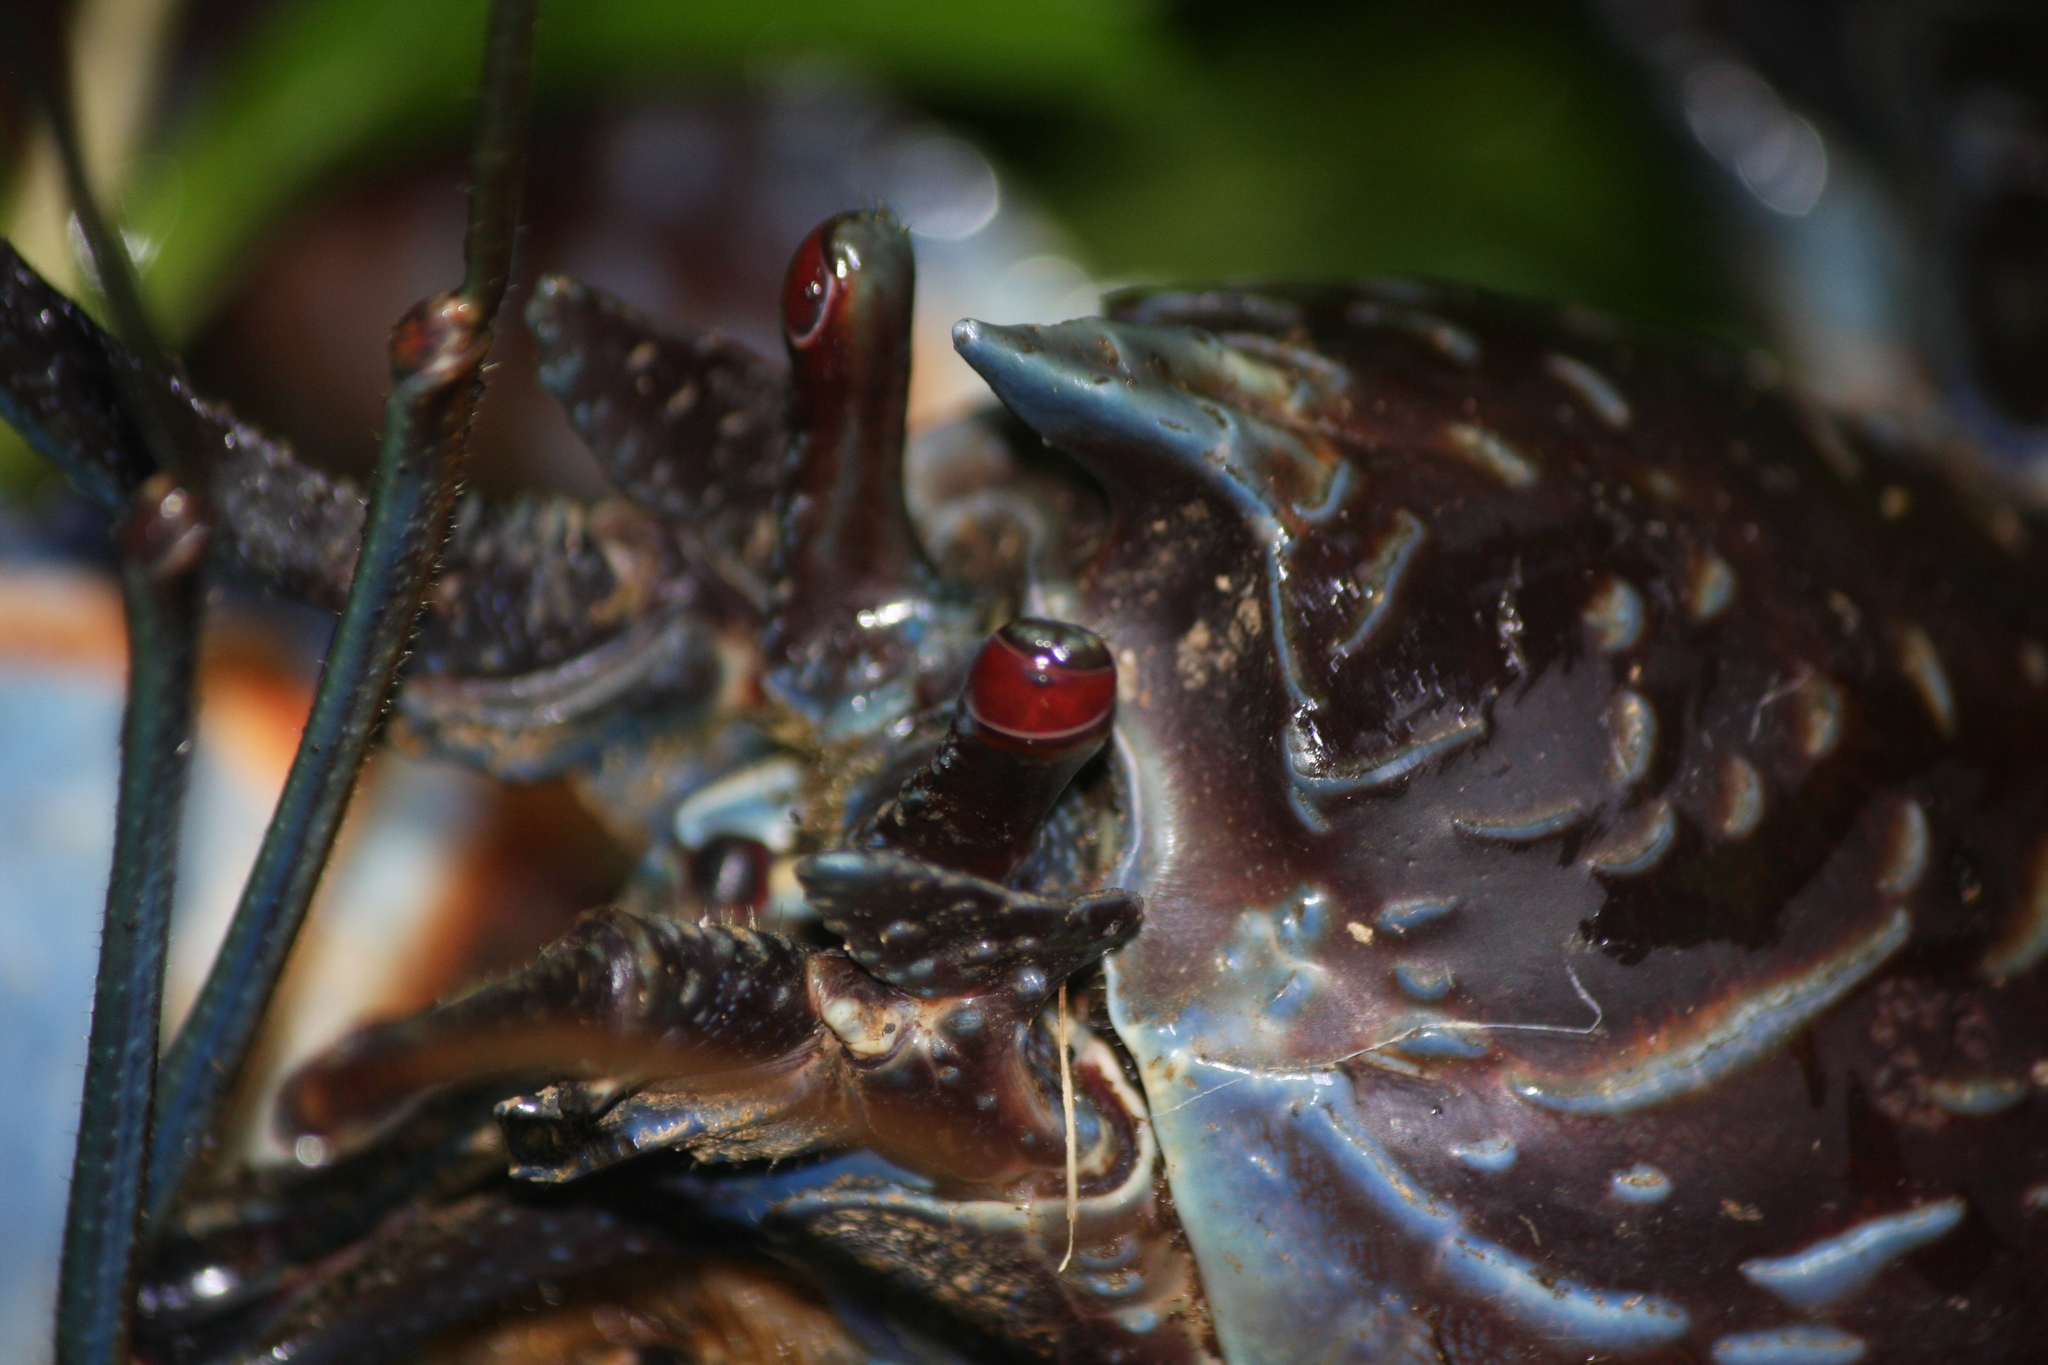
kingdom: Animalia
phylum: Arthropoda
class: Malacostraca
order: Decapoda
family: Coenobitidae
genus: Birgus
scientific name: Birgus latro
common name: Coconut crab
